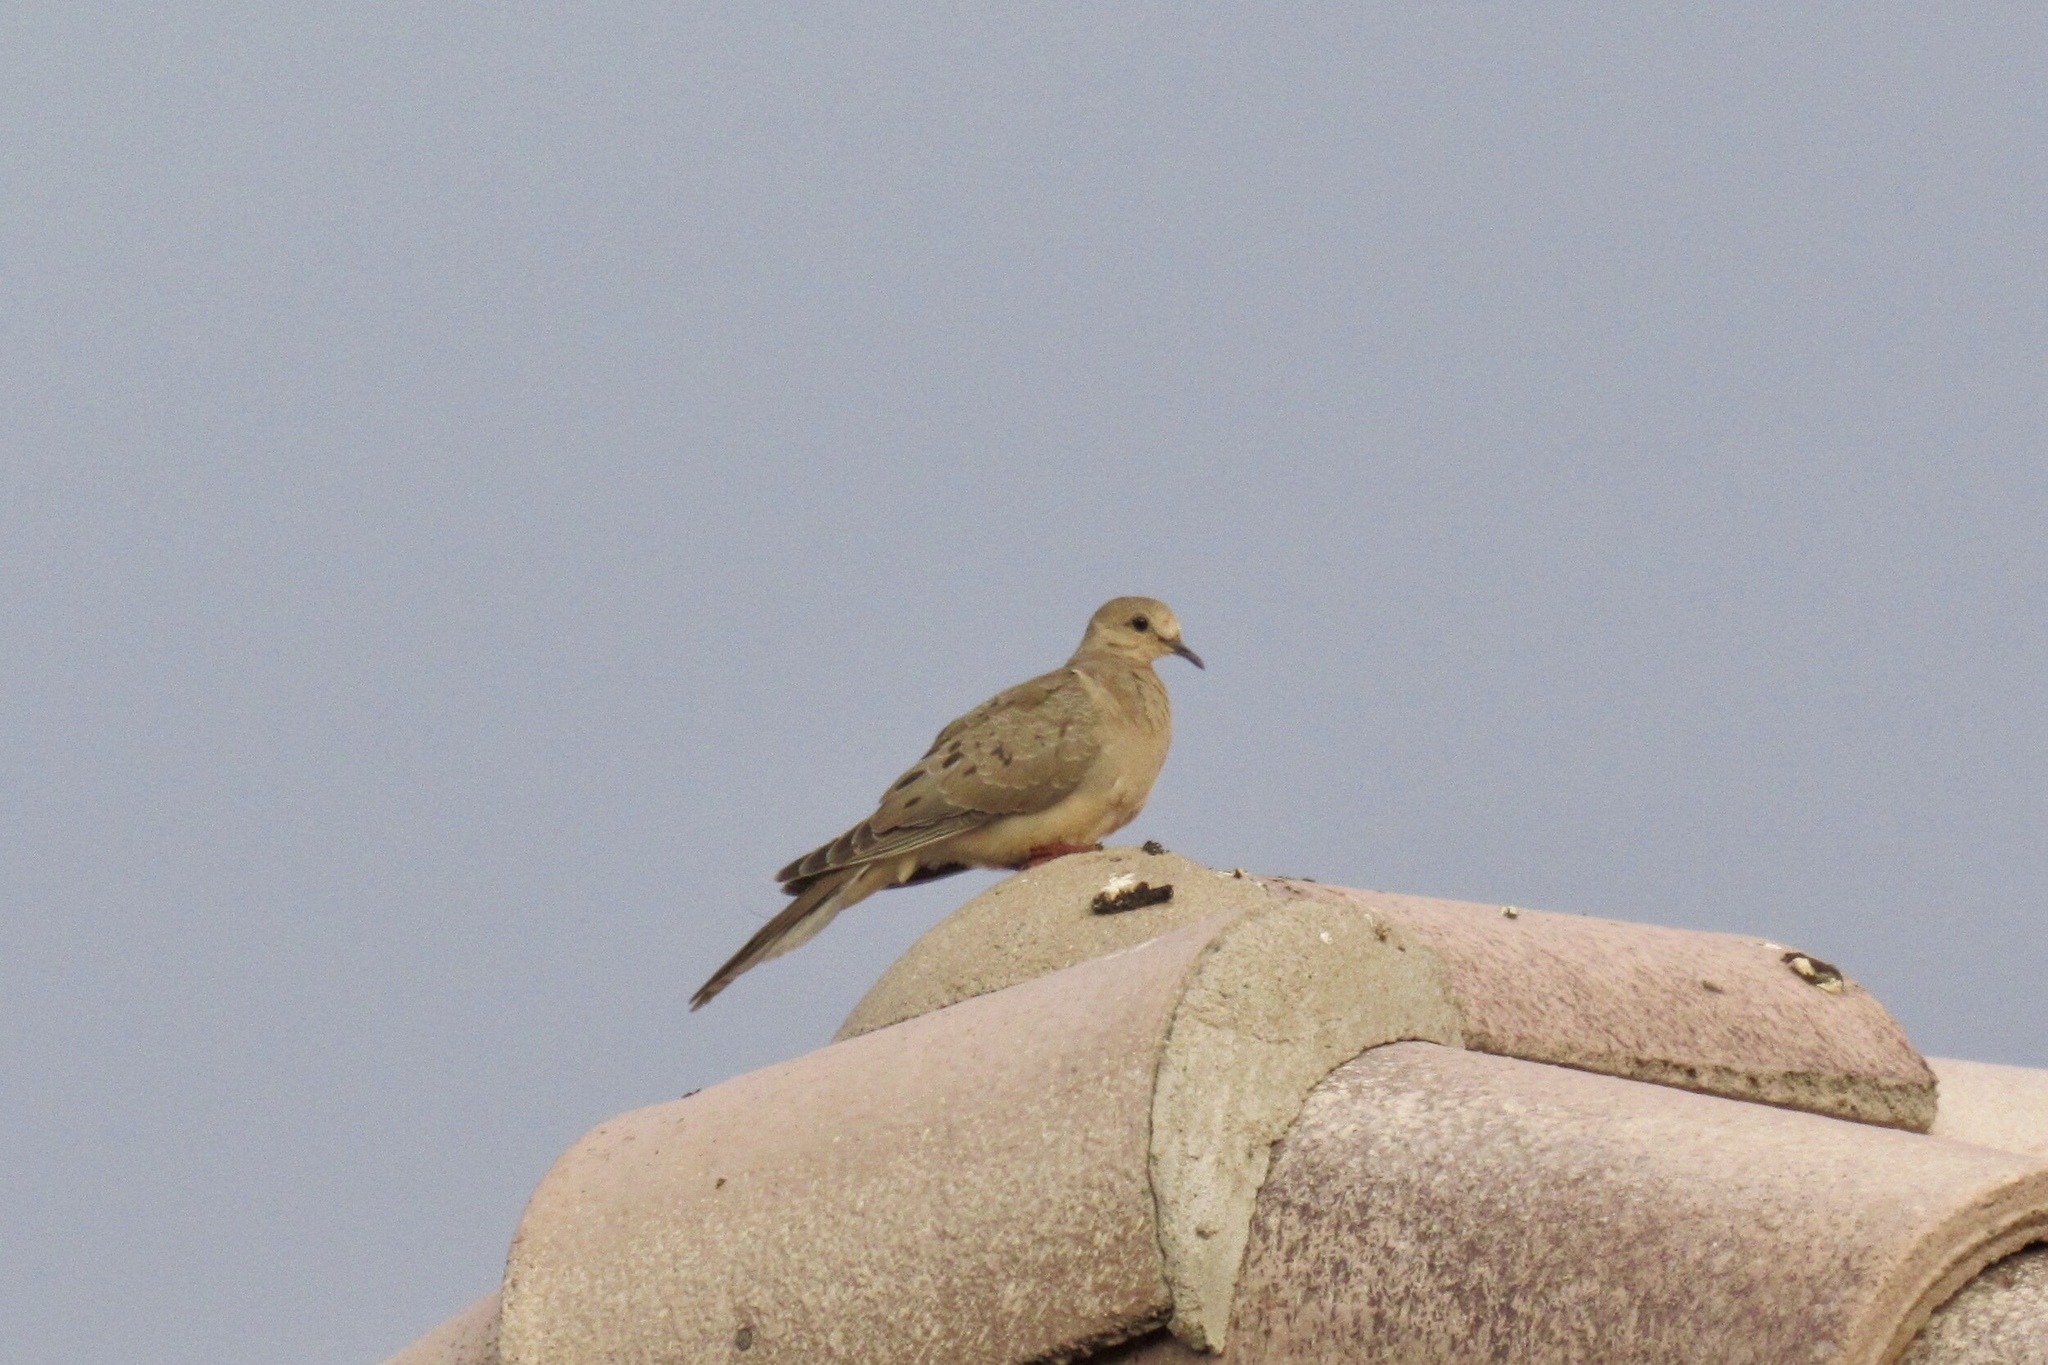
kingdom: Animalia
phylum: Chordata
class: Aves
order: Columbiformes
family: Columbidae
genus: Zenaida
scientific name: Zenaida macroura
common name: Mourning dove
